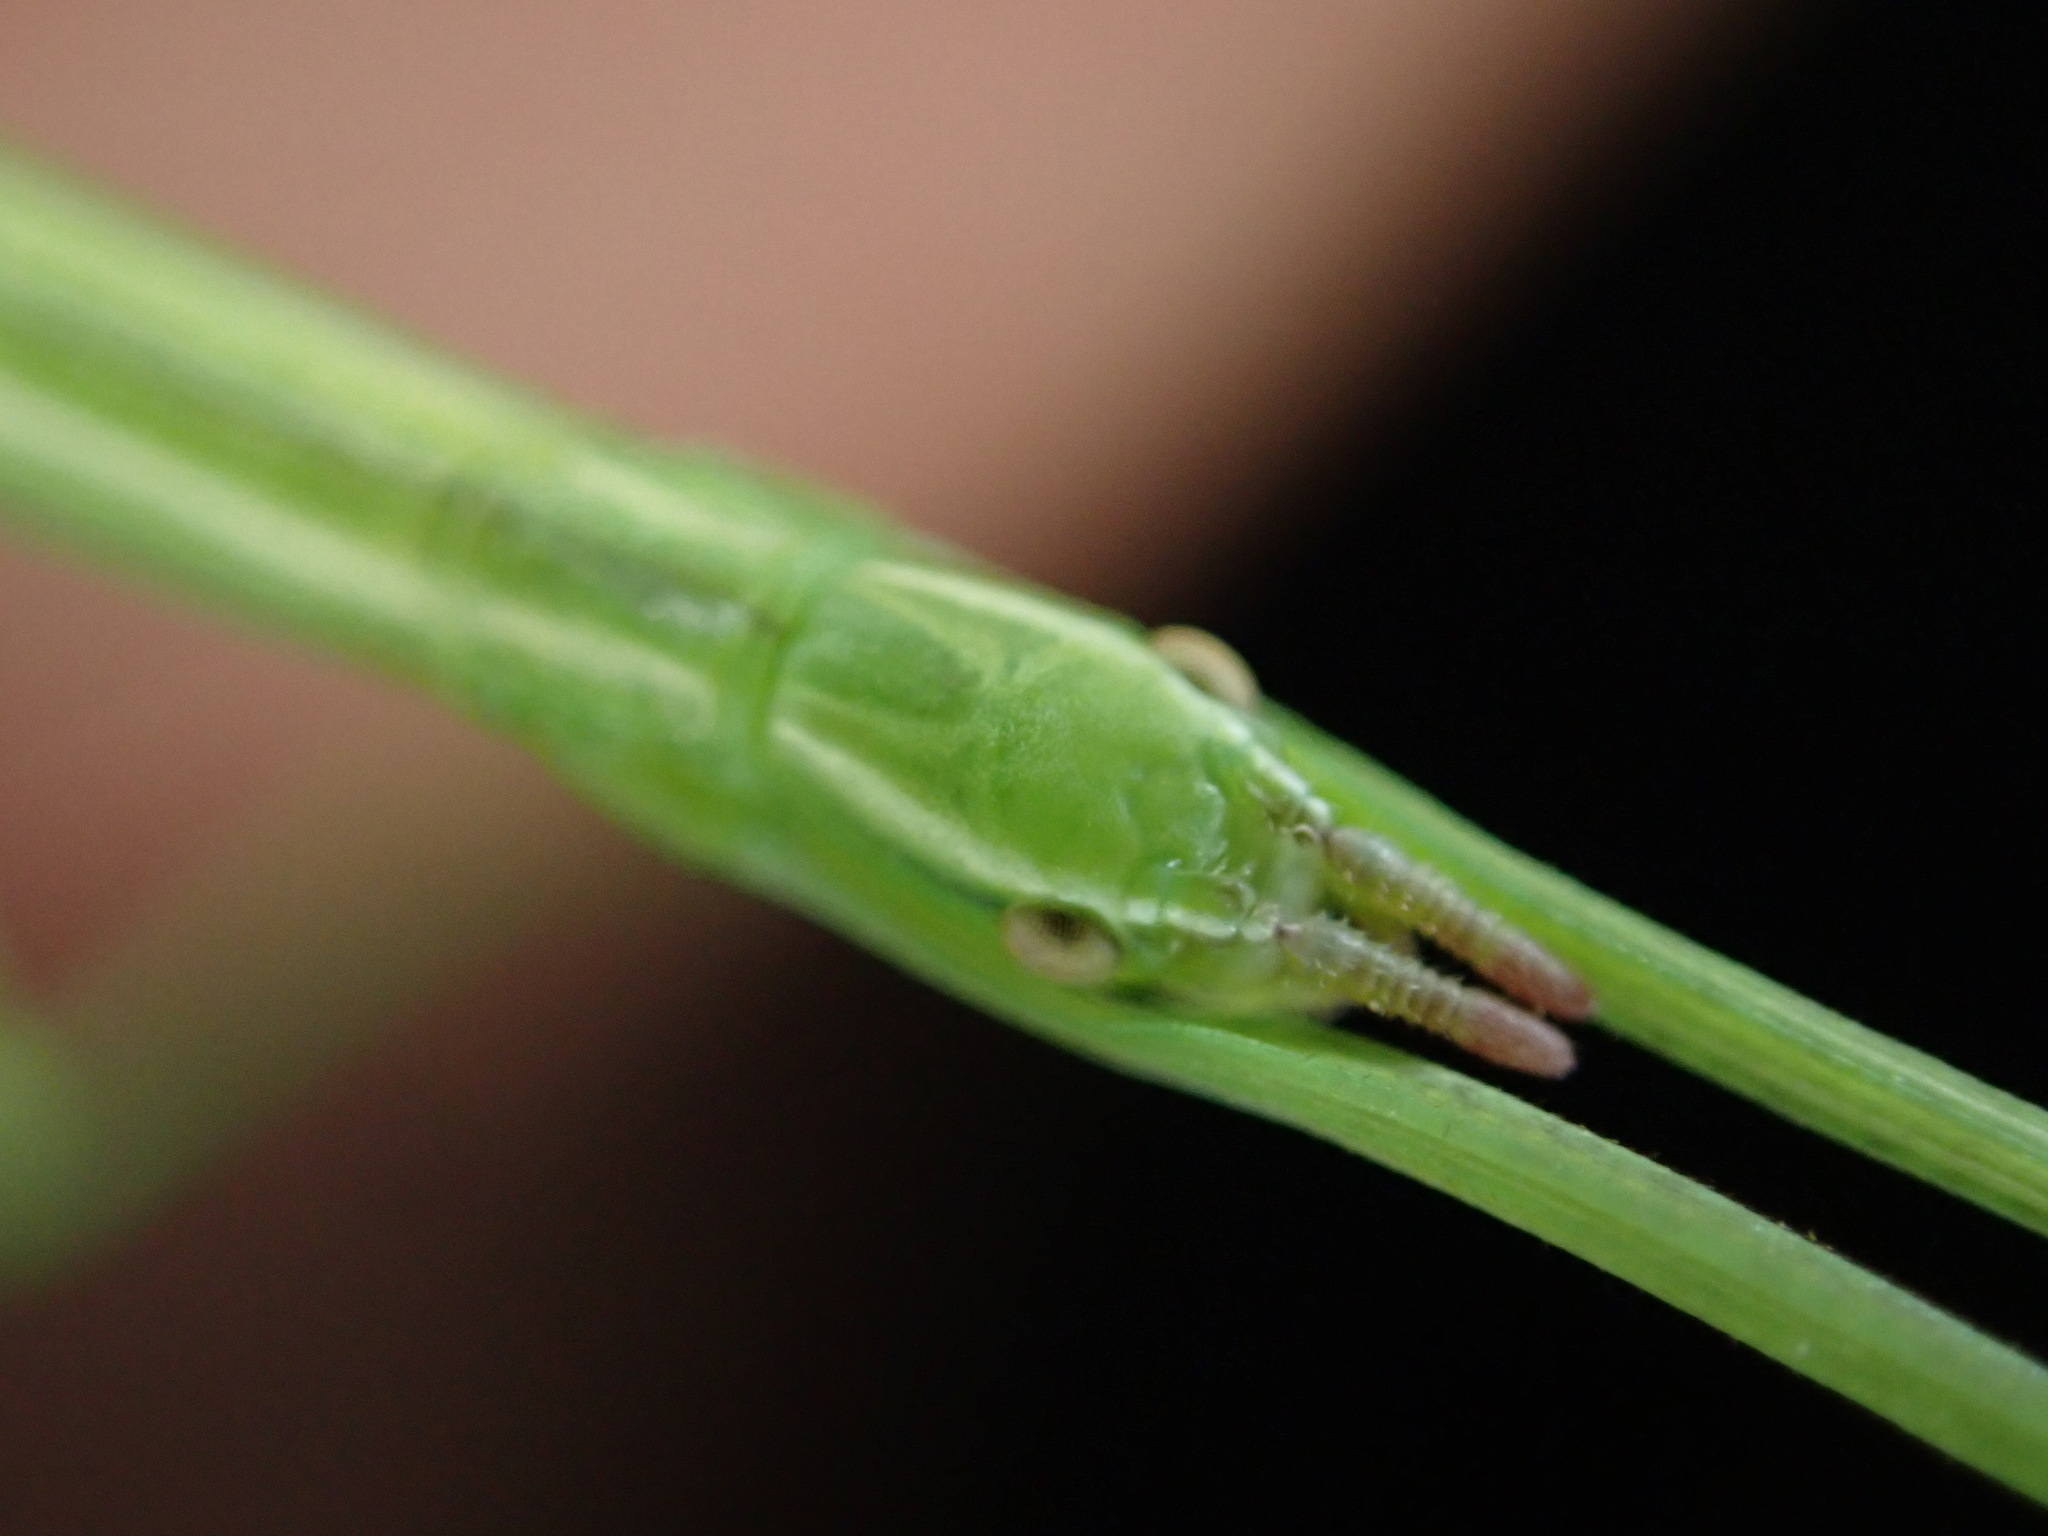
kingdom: Animalia
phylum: Arthropoda
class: Insecta
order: Phasmida
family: Bacillidae
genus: Bacillus
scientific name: Bacillus rossius
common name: Corsican stick-insect
